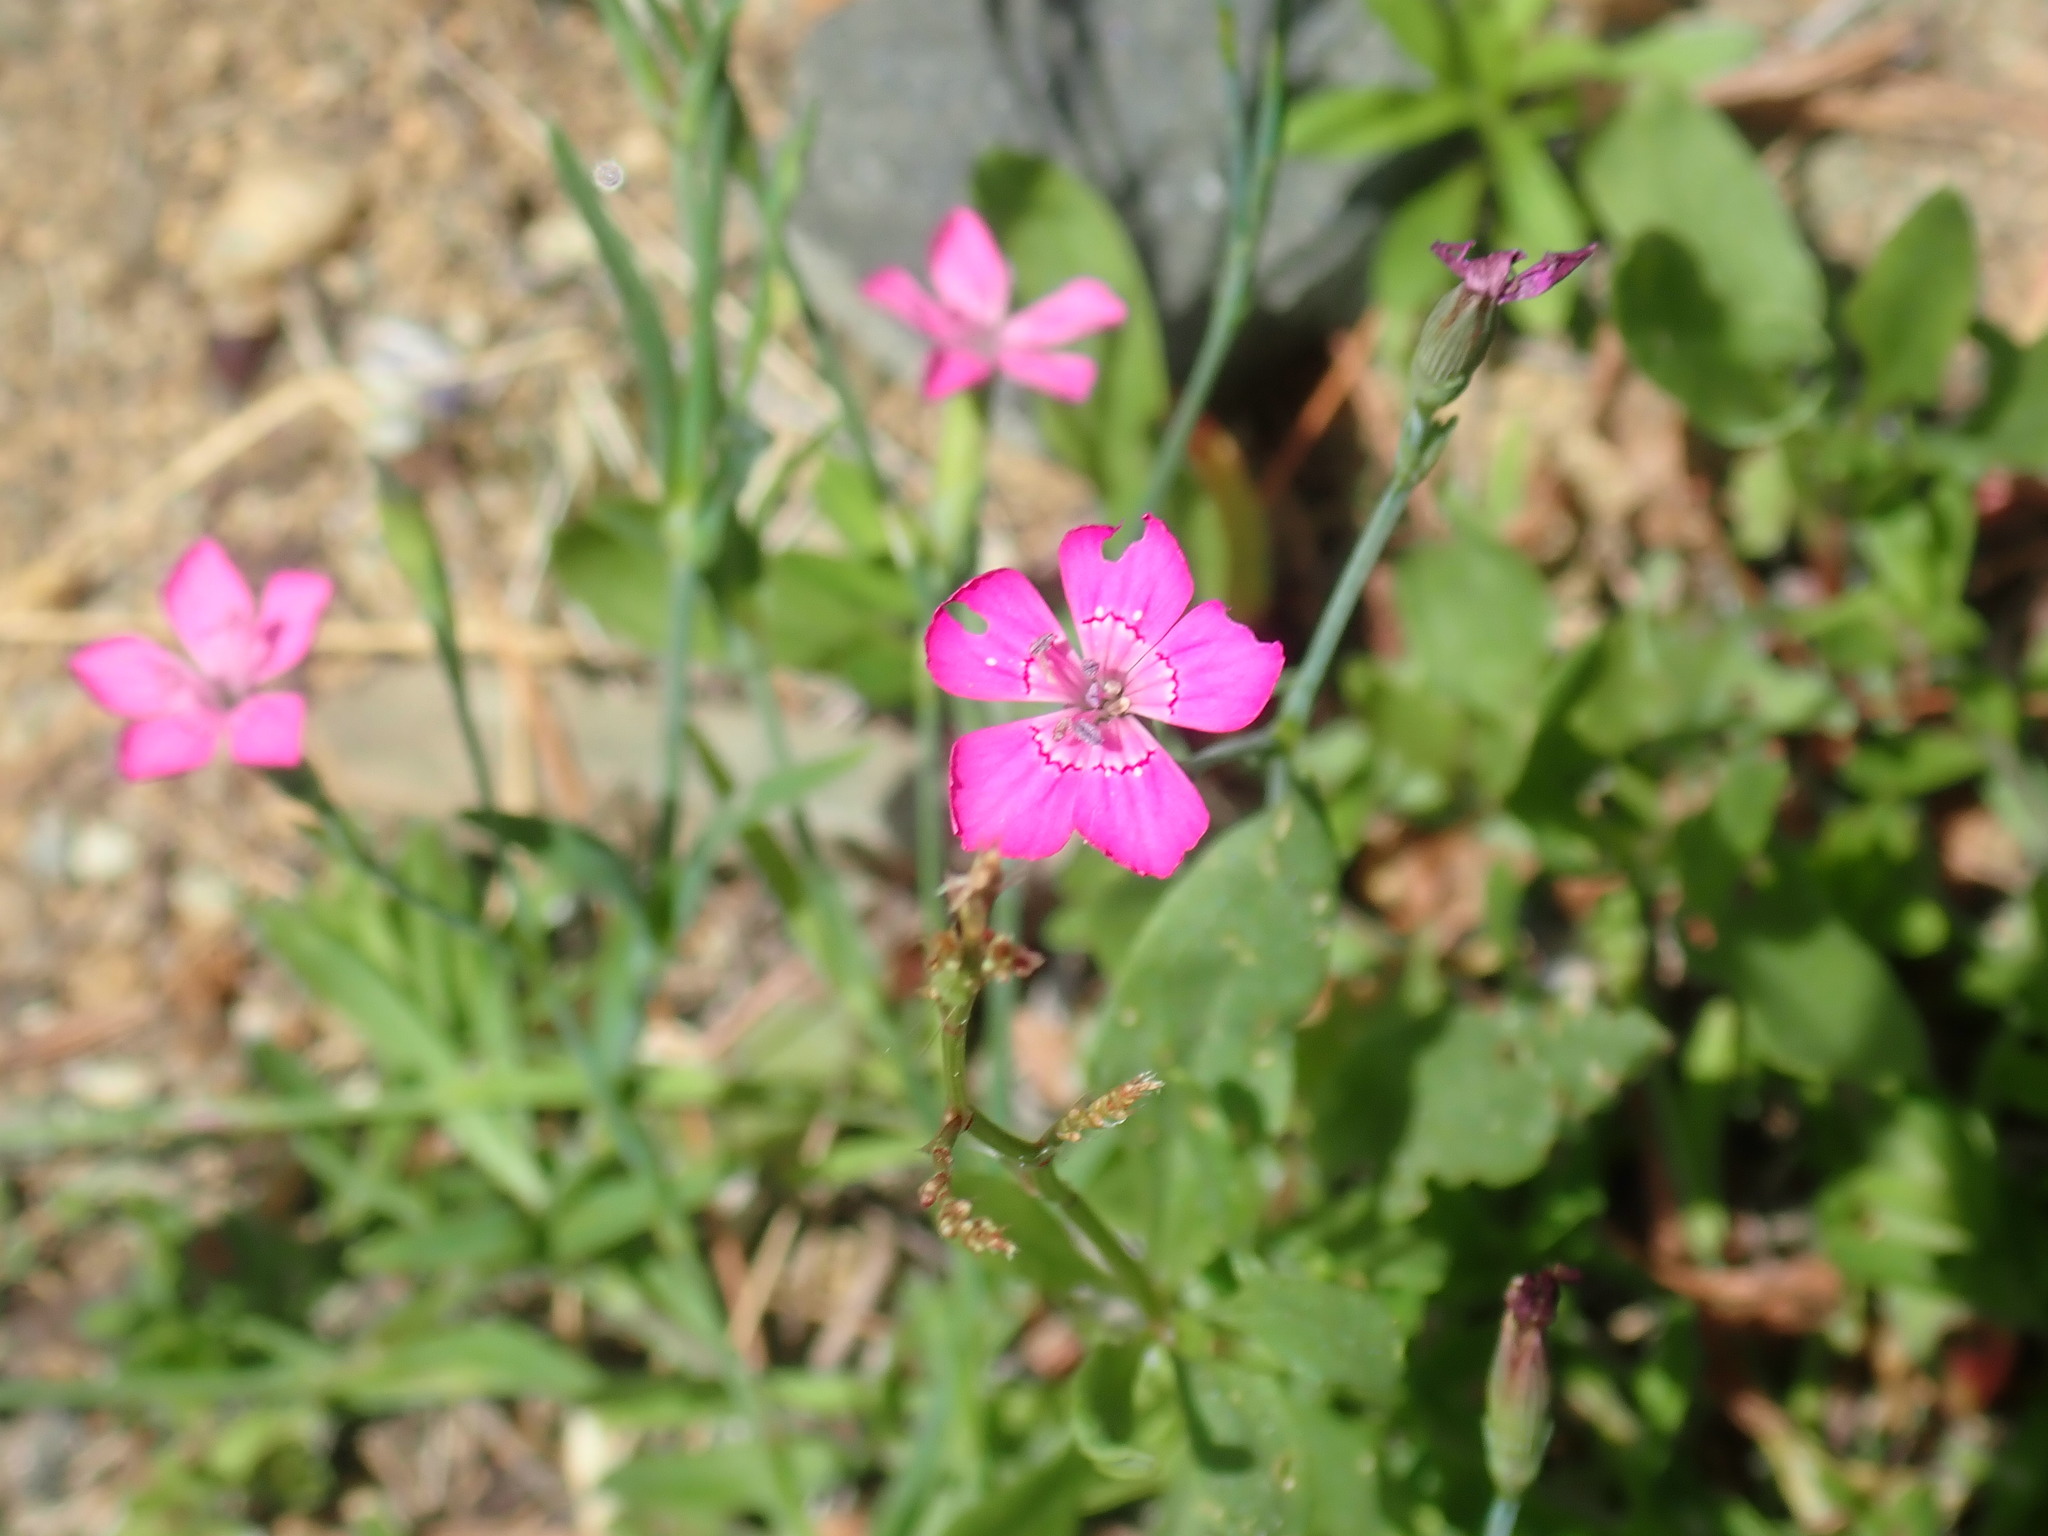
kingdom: Plantae
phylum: Tracheophyta
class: Magnoliopsida
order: Caryophyllales
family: Caryophyllaceae
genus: Dianthus
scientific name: Dianthus deltoides
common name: Maiden pink
